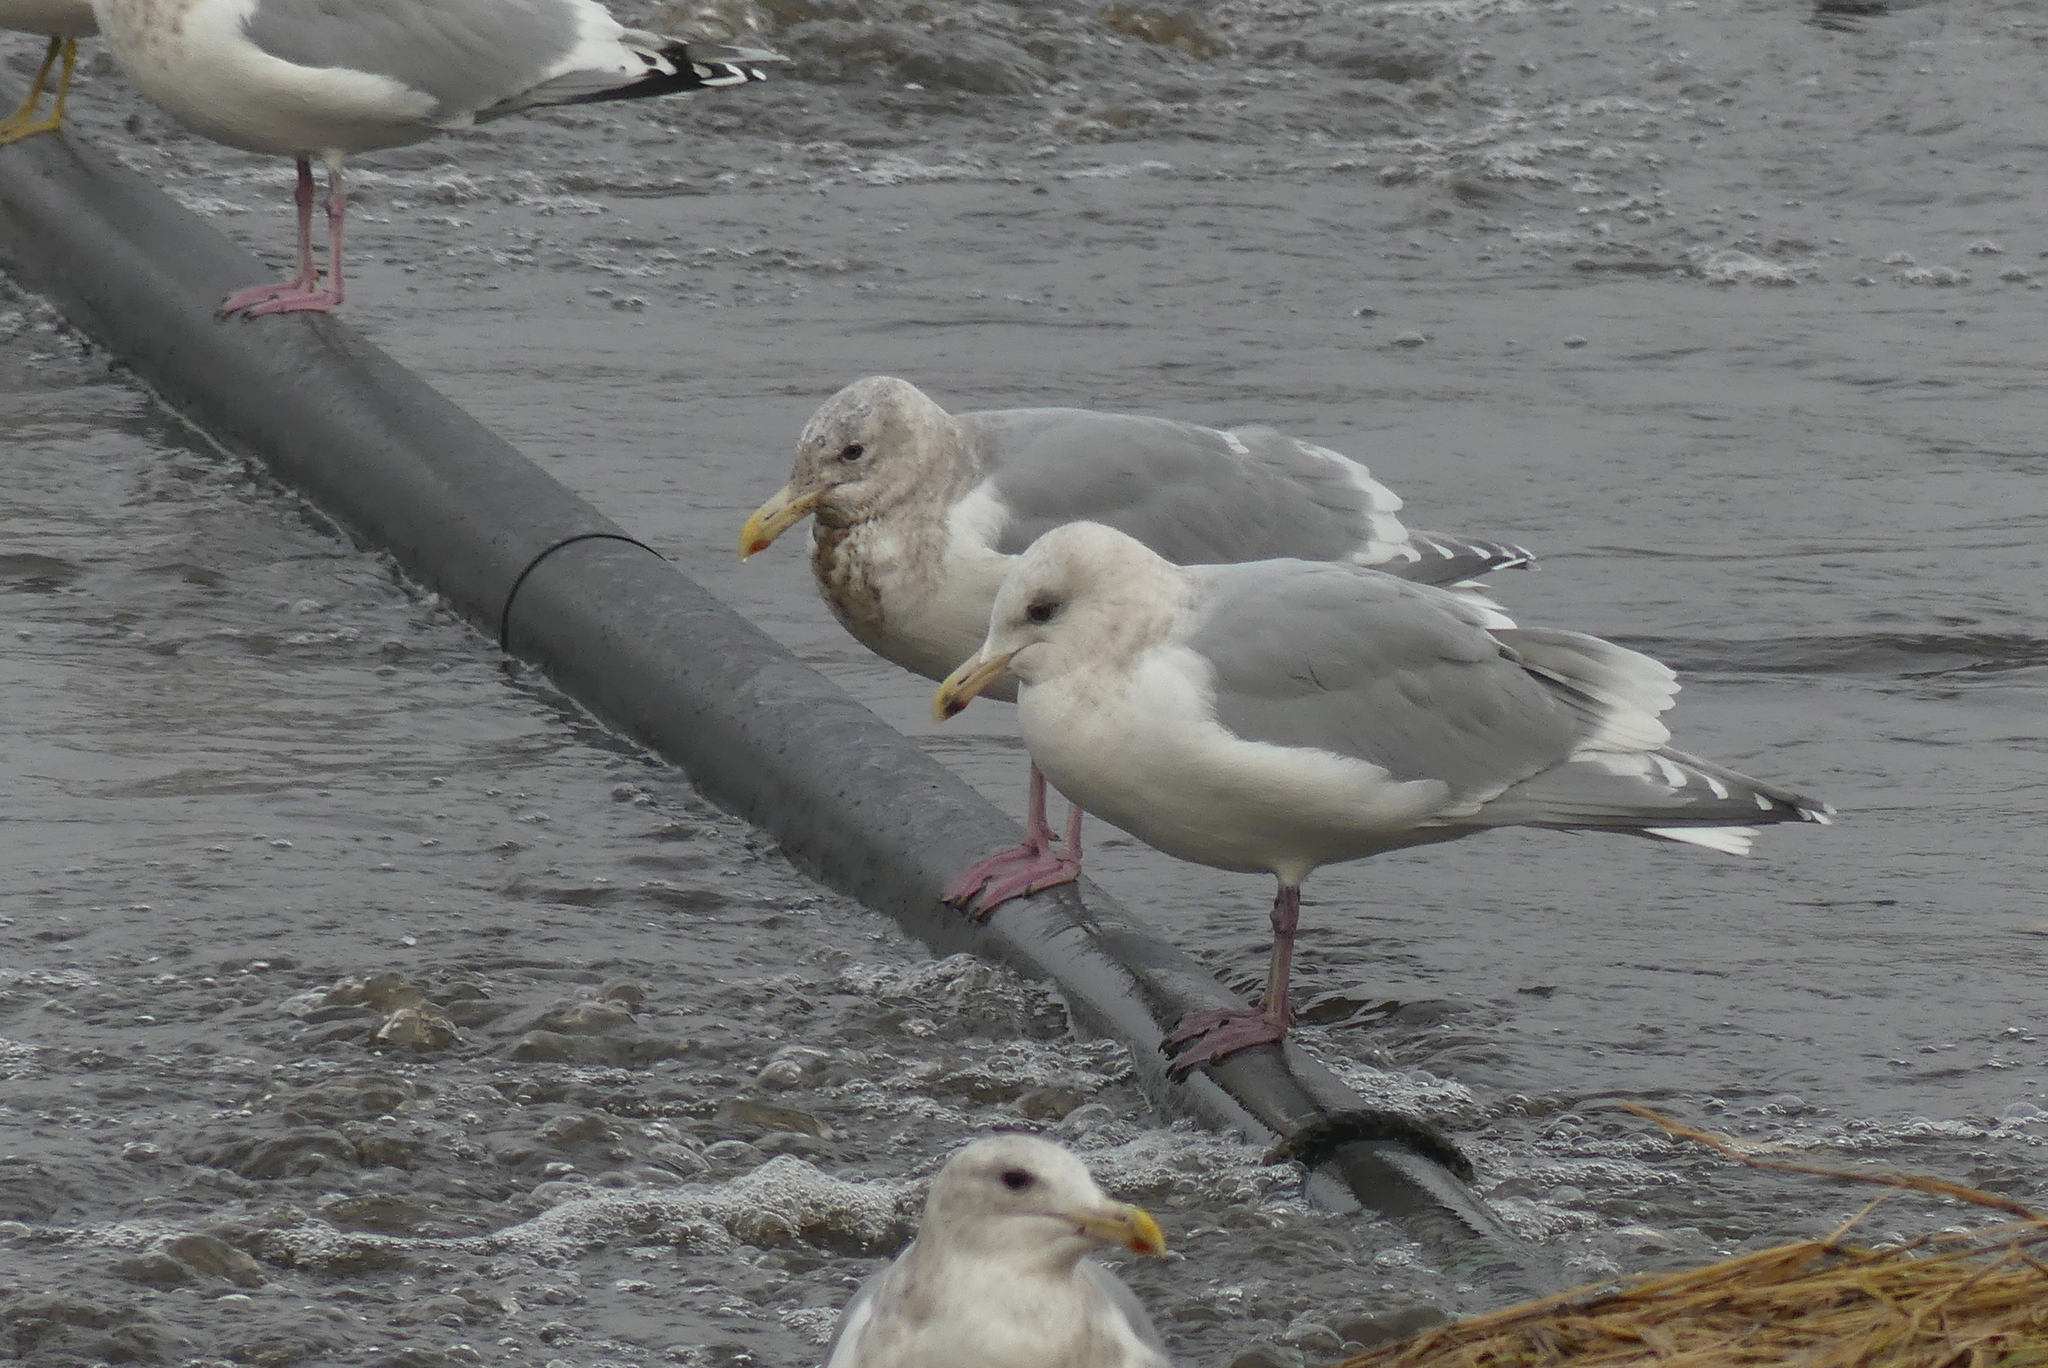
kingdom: Animalia
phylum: Chordata
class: Aves
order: Charadriiformes
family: Laridae
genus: Larus
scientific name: Larus glaucoides
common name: Iceland gull
